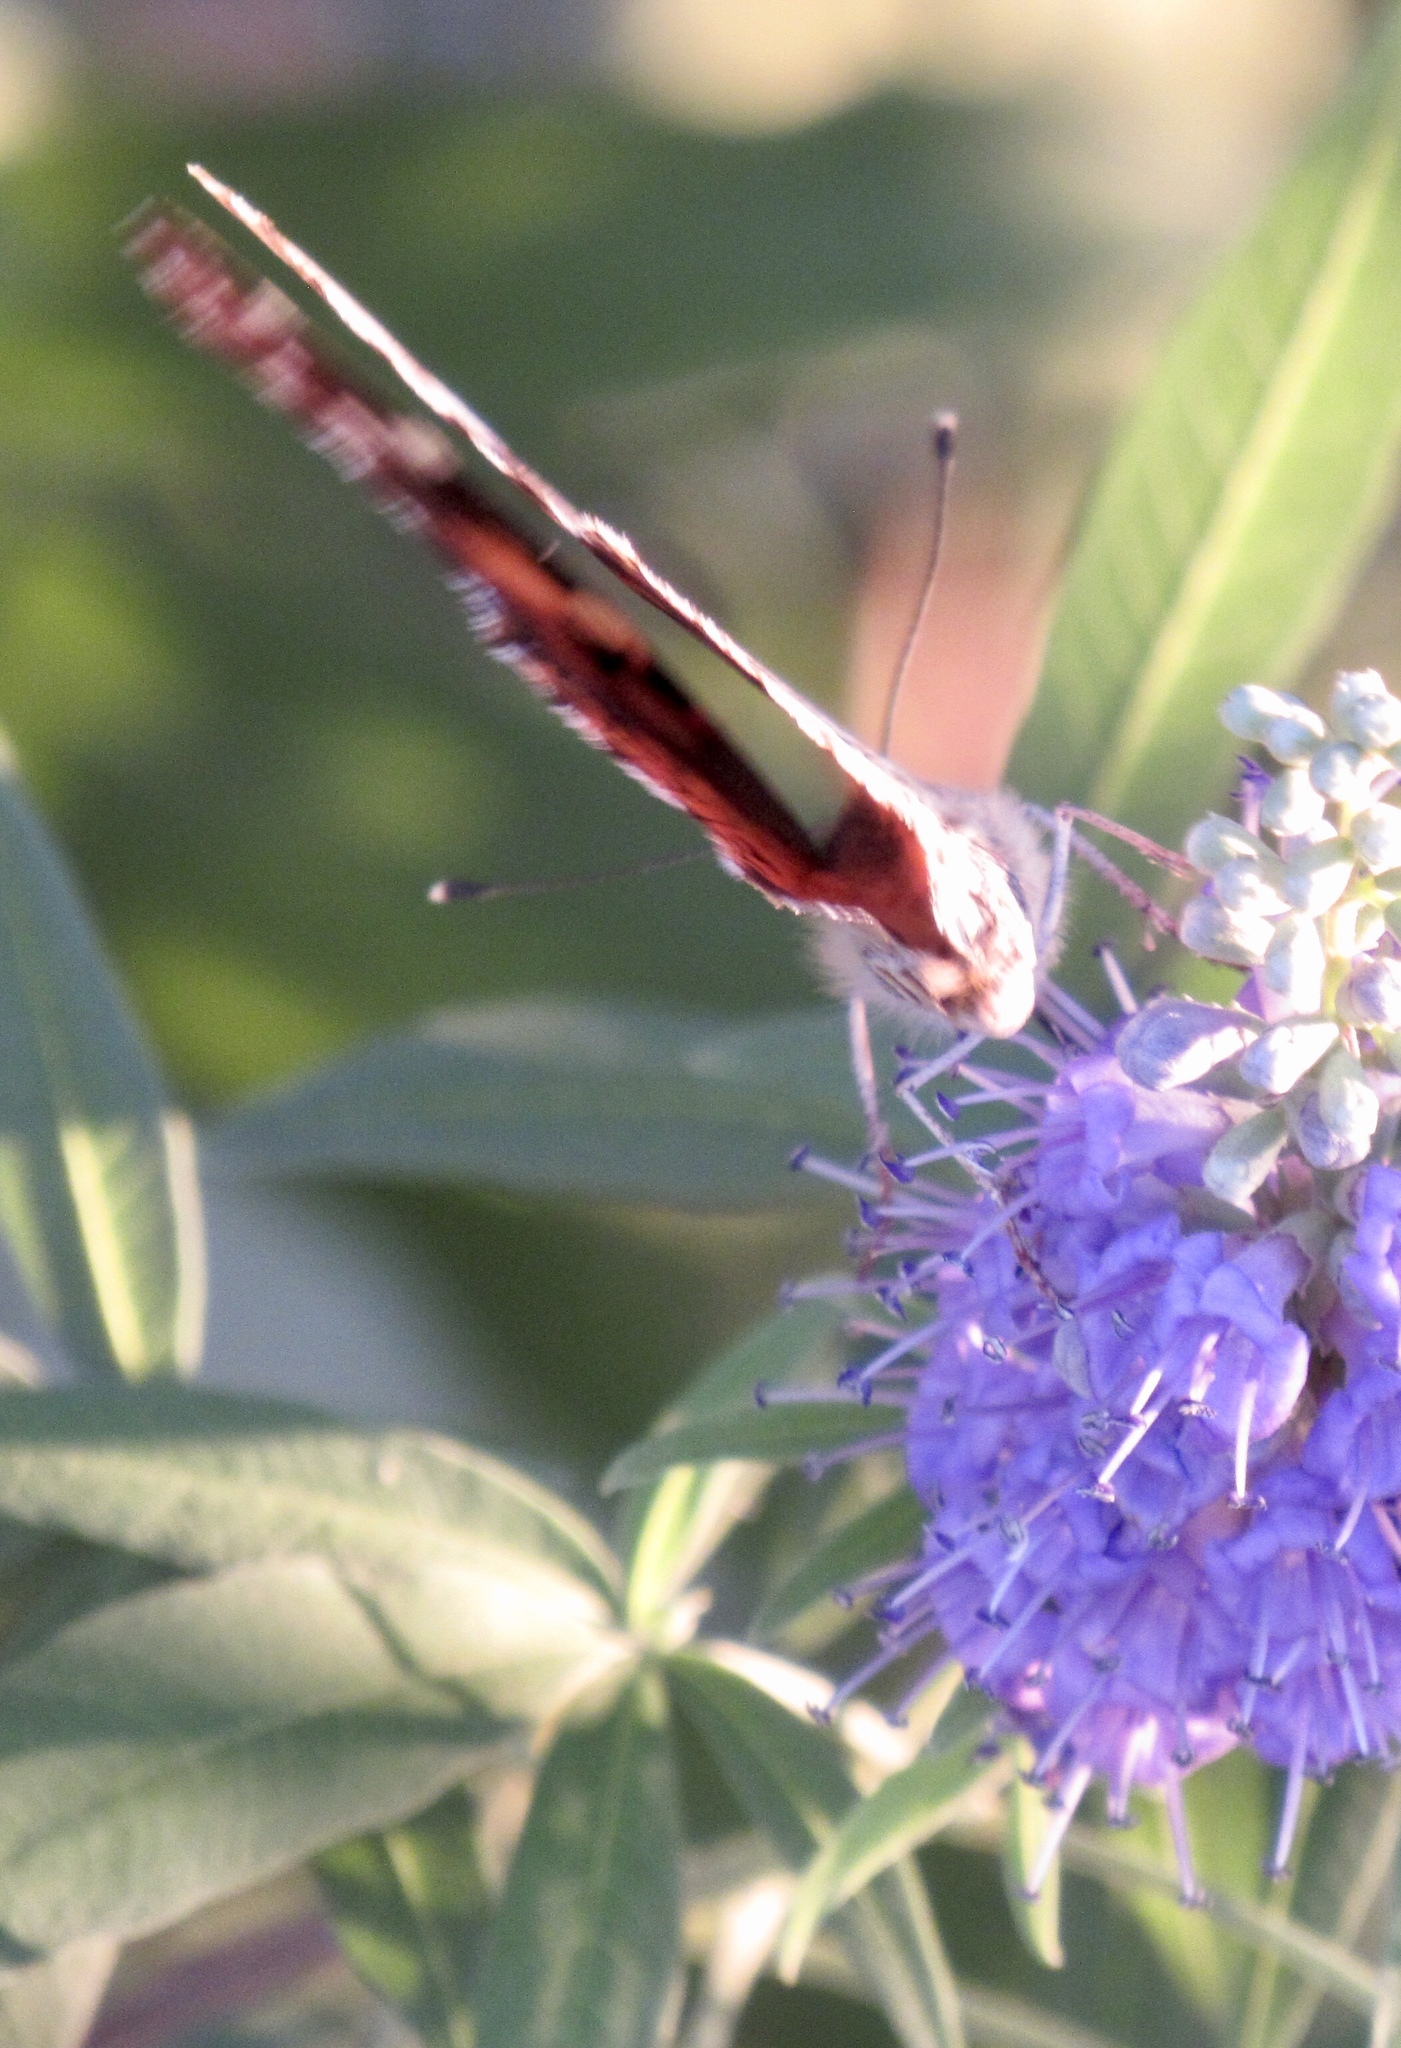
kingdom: Animalia
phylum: Arthropoda
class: Insecta
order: Lepidoptera
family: Nymphalidae
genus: Vanessa
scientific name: Vanessa cardui
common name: Painted lady
